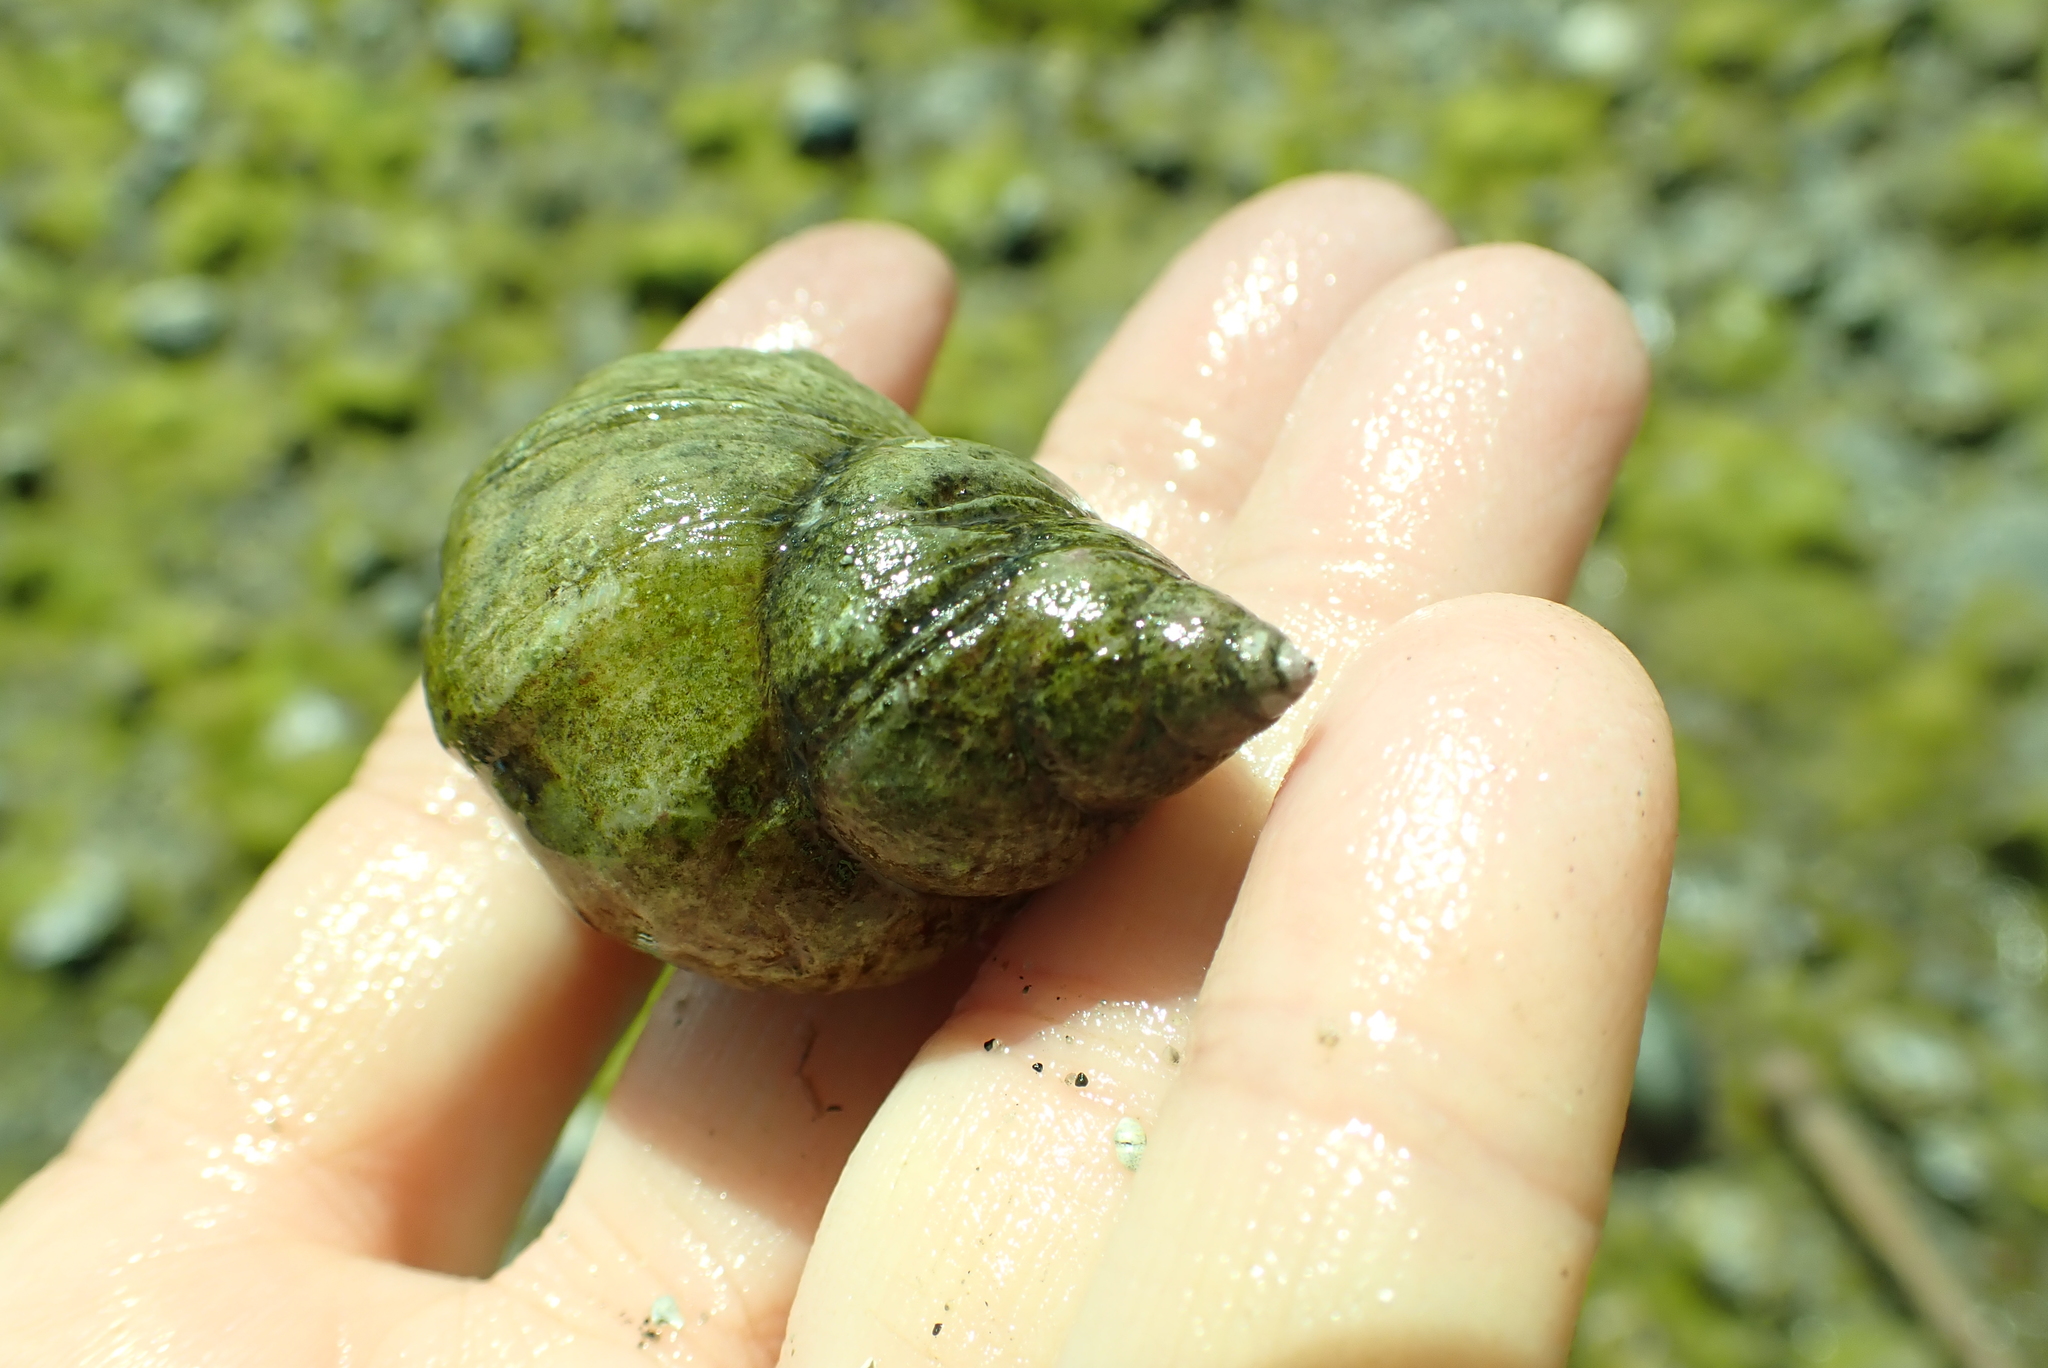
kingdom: Animalia
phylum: Mollusca
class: Gastropoda
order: Neogastropoda
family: Muricidae
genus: Nucella
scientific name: Nucella lamellosa
